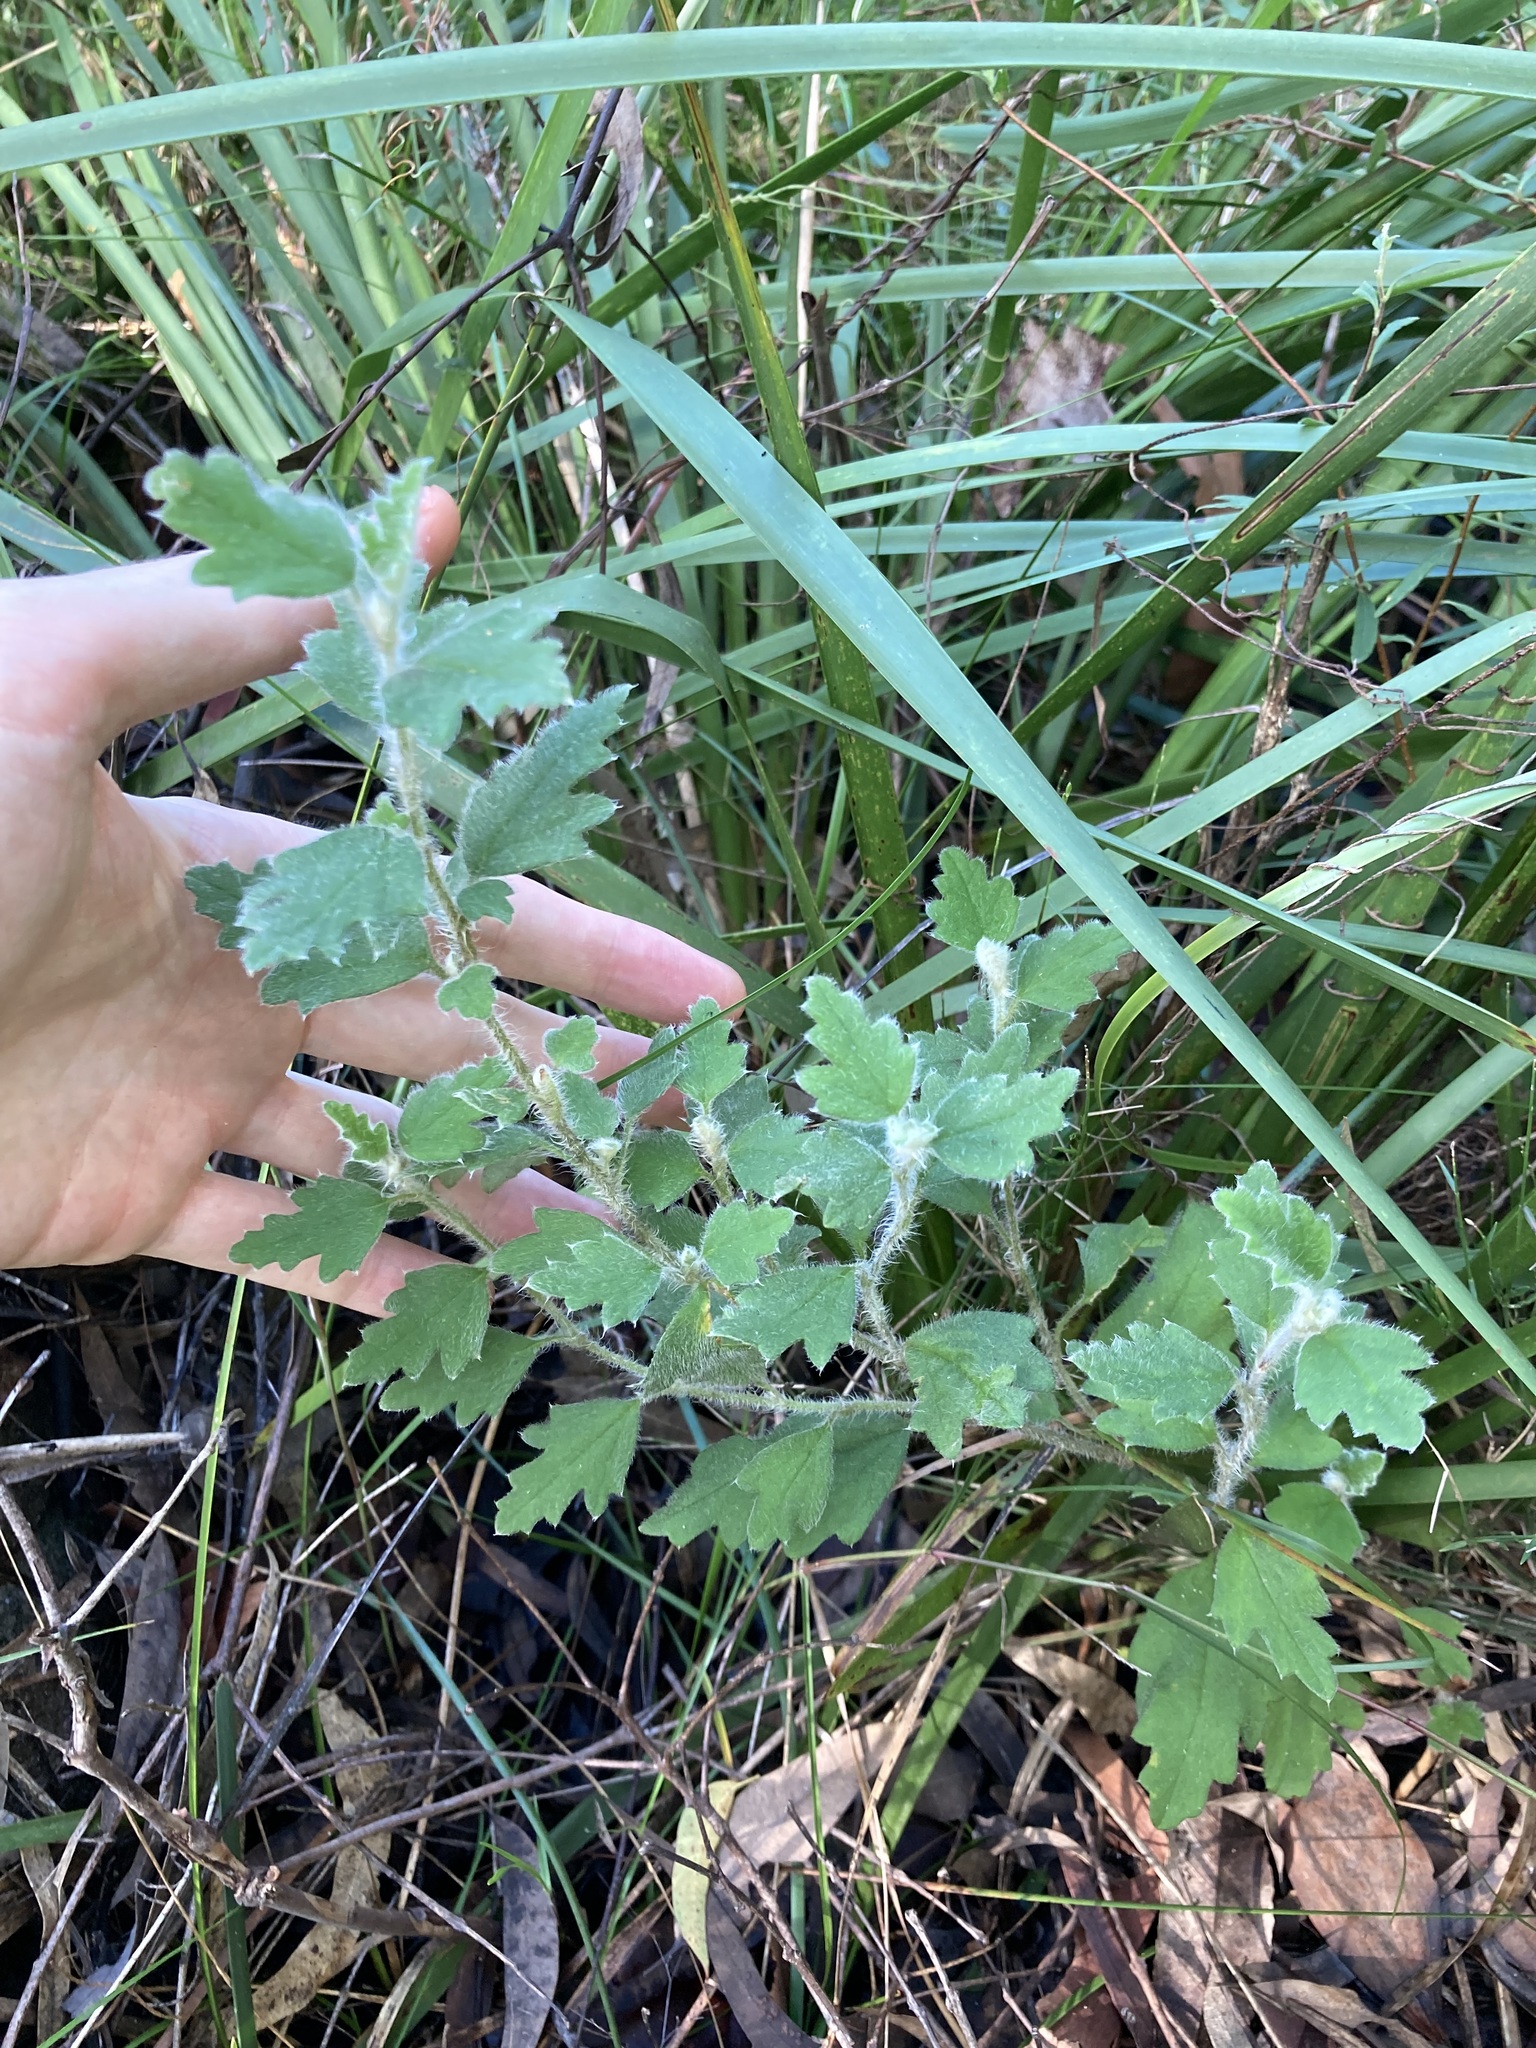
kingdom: Plantae
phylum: Tracheophyta
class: Magnoliopsida
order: Apiales
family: Apiaceae
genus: Xanthosia
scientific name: Xanthosia pilosa
